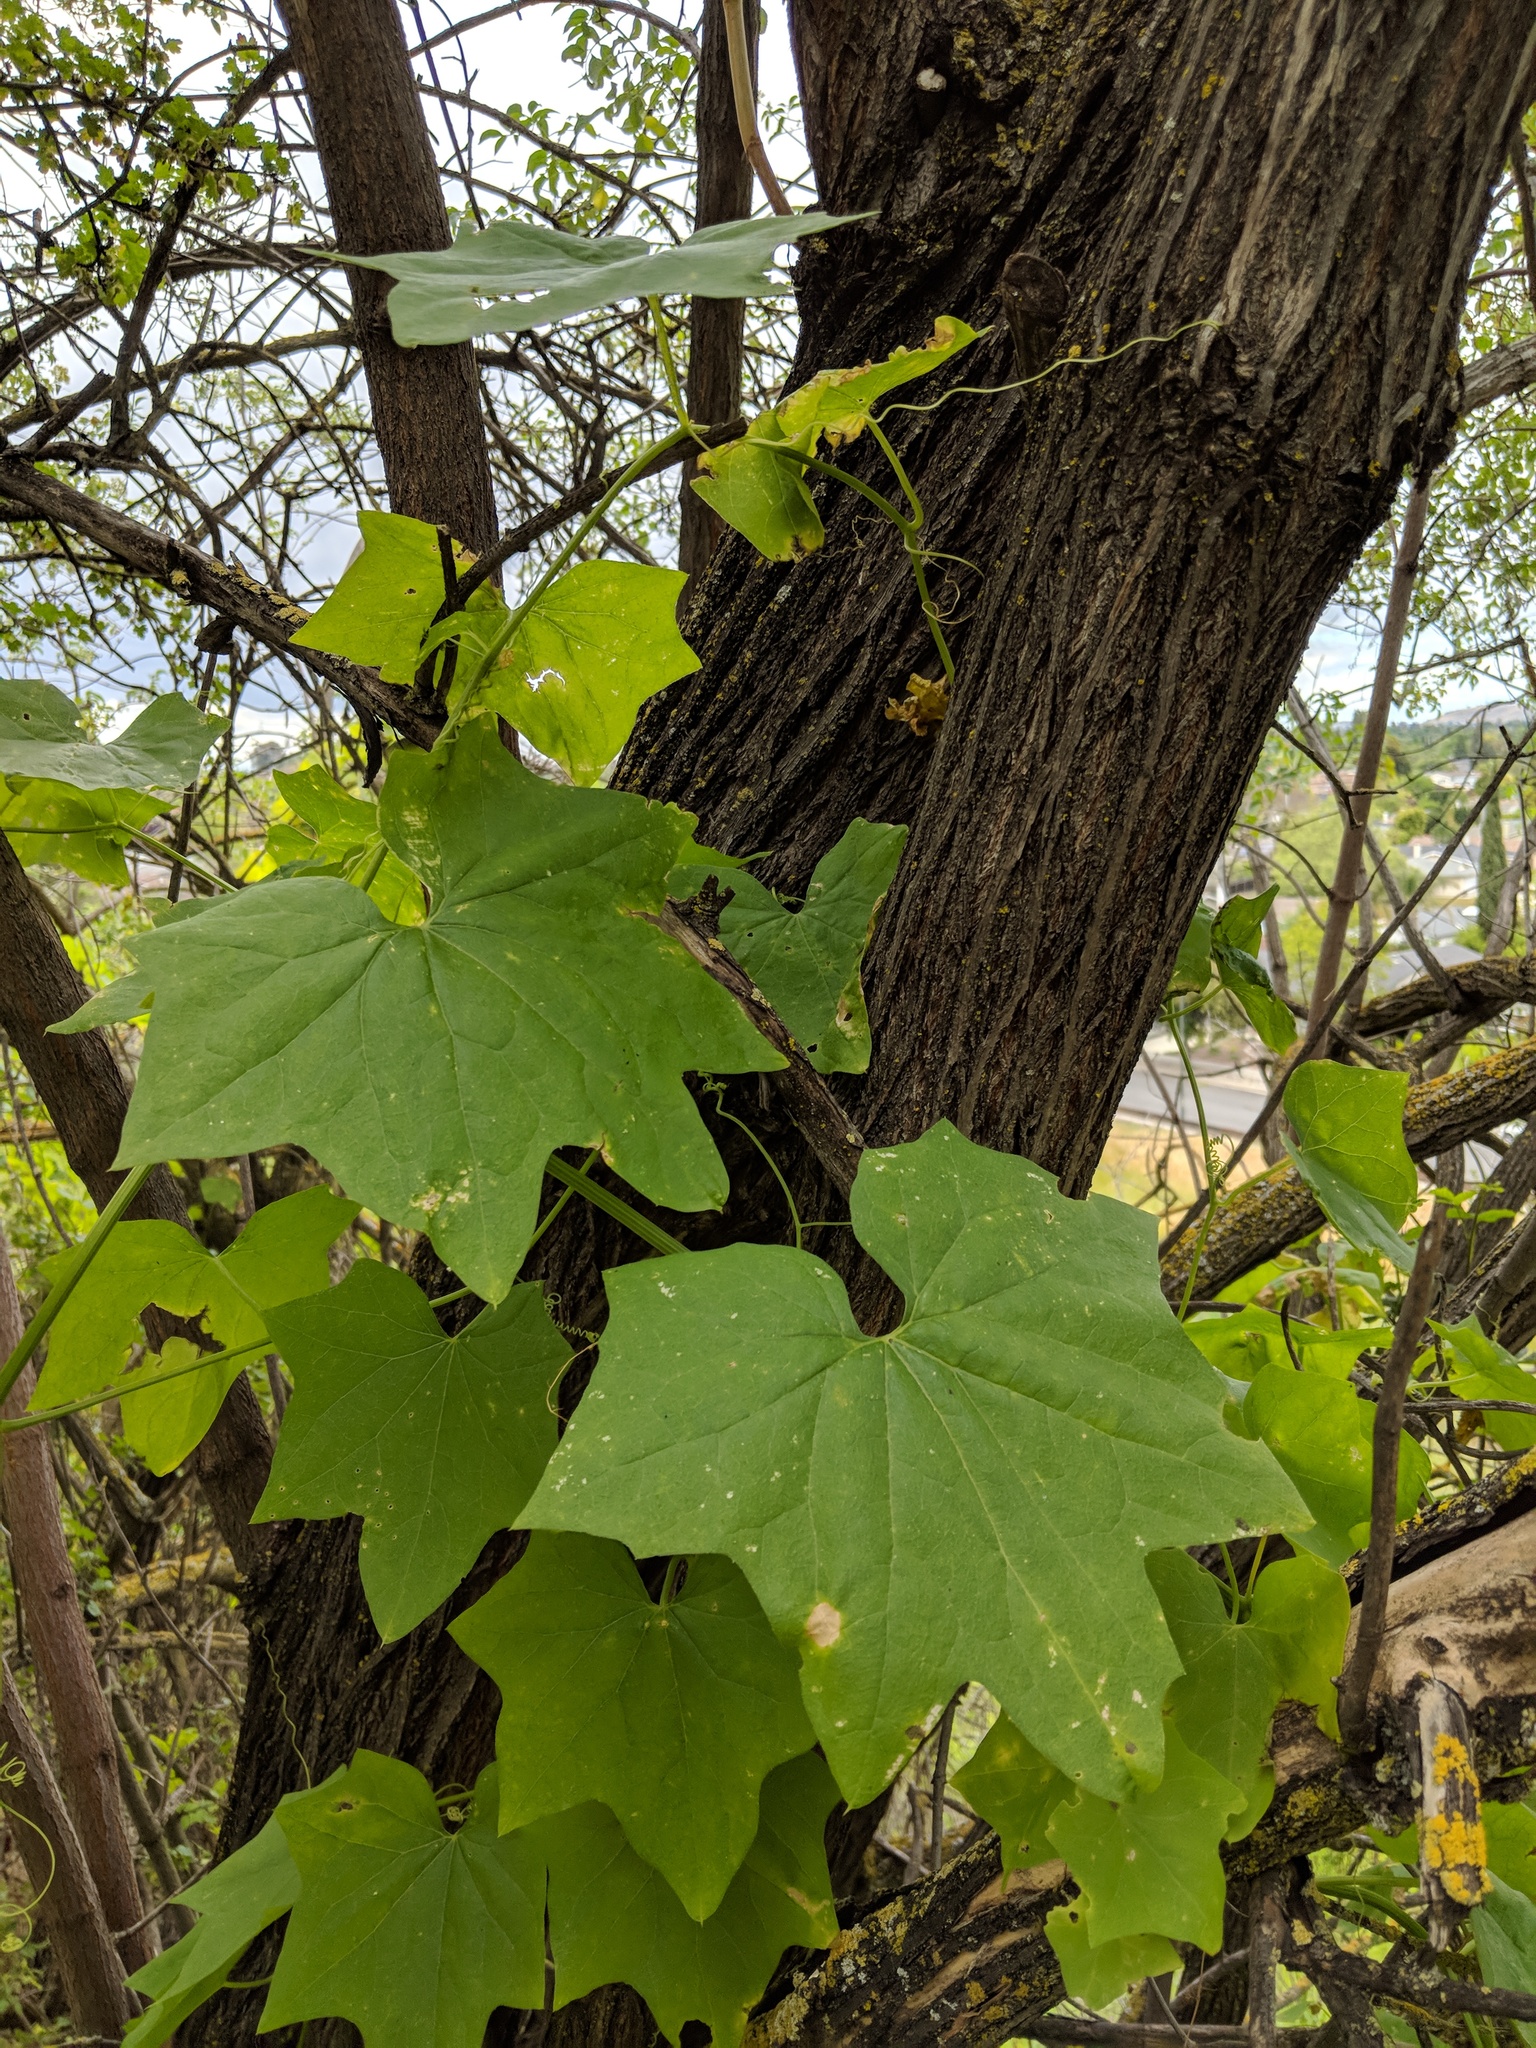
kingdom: Plantae
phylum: Tracheophyta
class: Magnoliopsida
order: Cucurbitales
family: Cucurbitaceae
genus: Marah
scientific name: Marah fabacea
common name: California manroot
